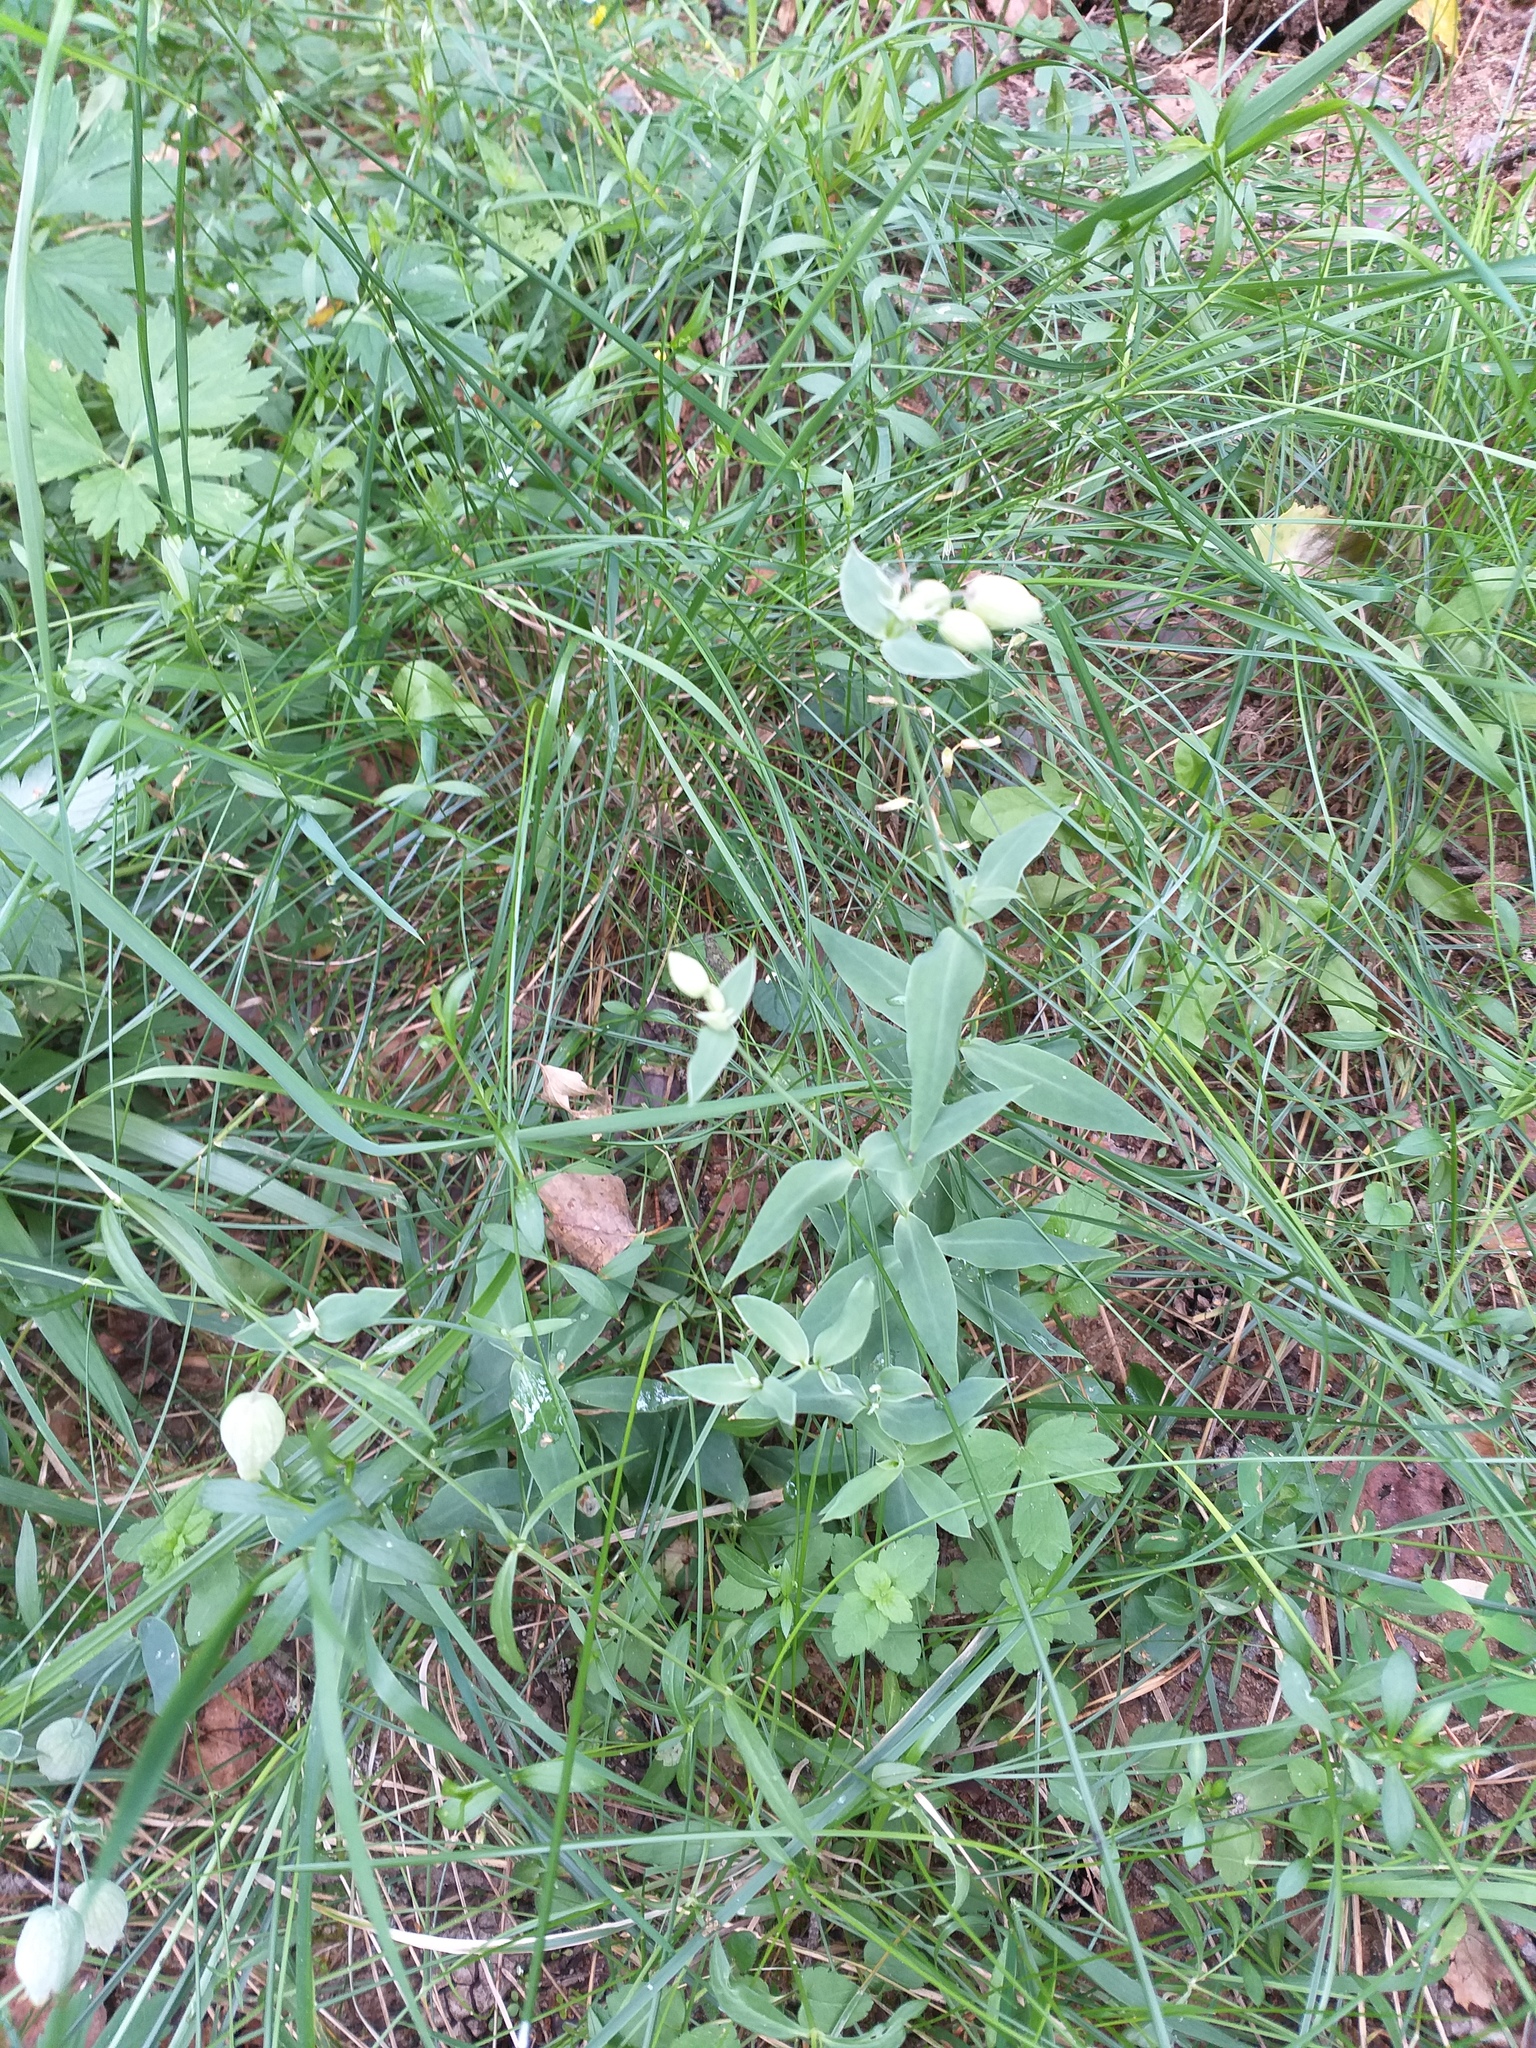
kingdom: Plantae
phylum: Tracheophyta
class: Magnoliopsida
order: Caryophyllales
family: Caryophyllaceae
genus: Silene
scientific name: Silene vulgaris
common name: Bladder campion
